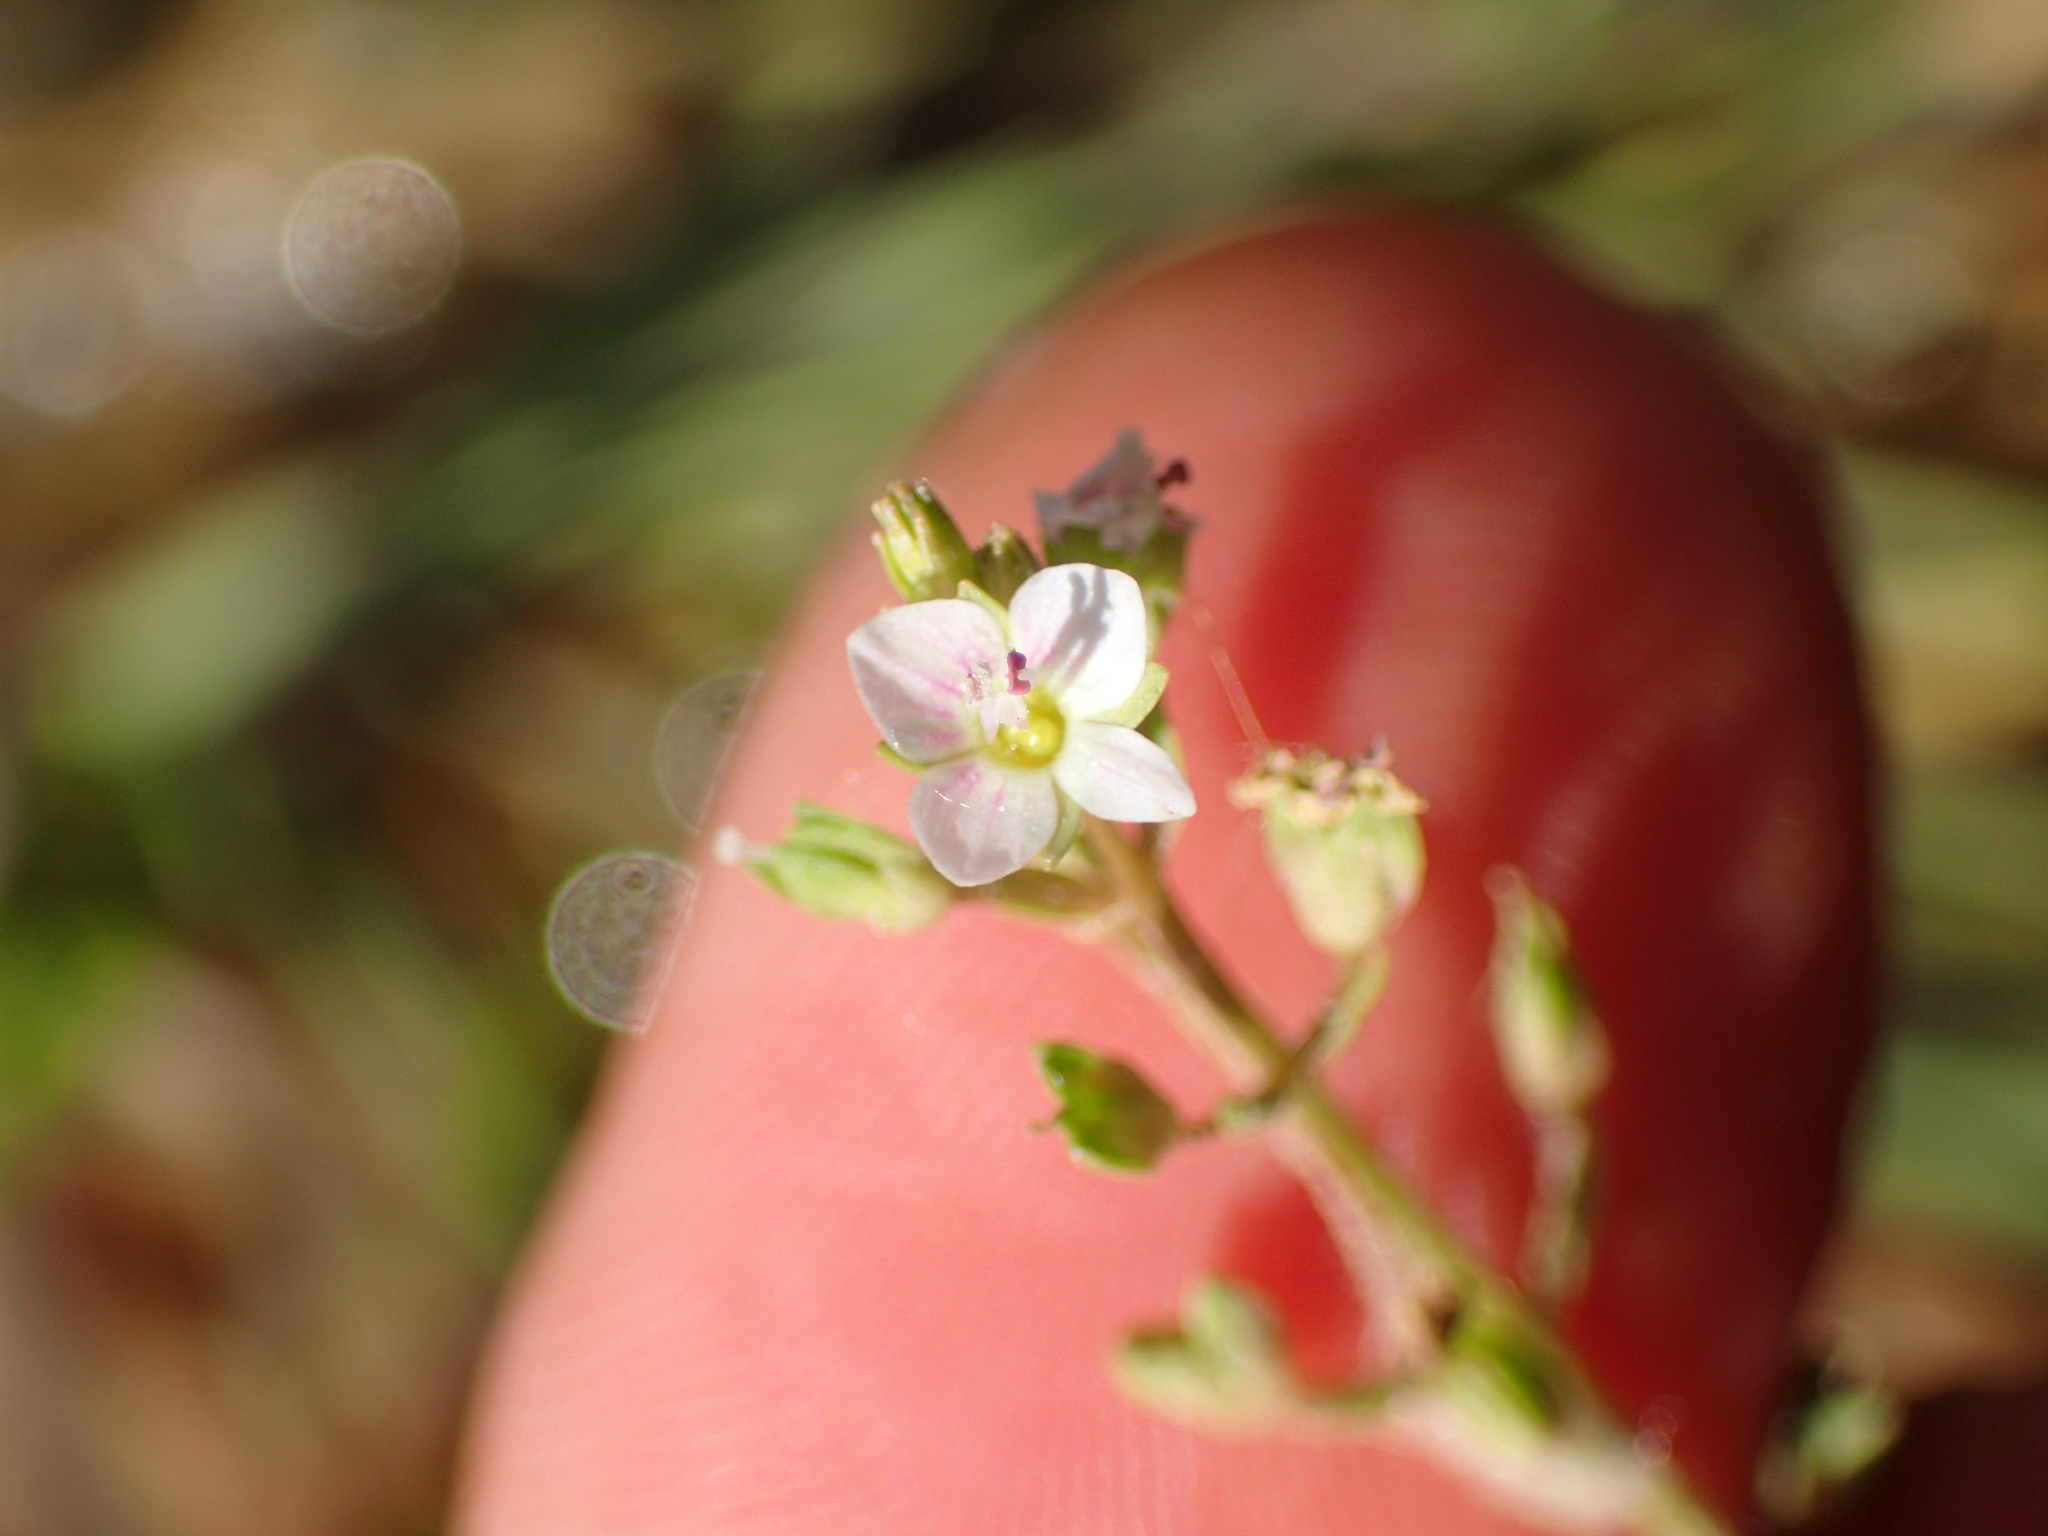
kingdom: Plantae
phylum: Tracheophyta
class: Magnoliopsida
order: Lamiales
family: Plantaginaceae
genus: Veronica
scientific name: Veronica anagallis-aquatica
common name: Water speedwell
